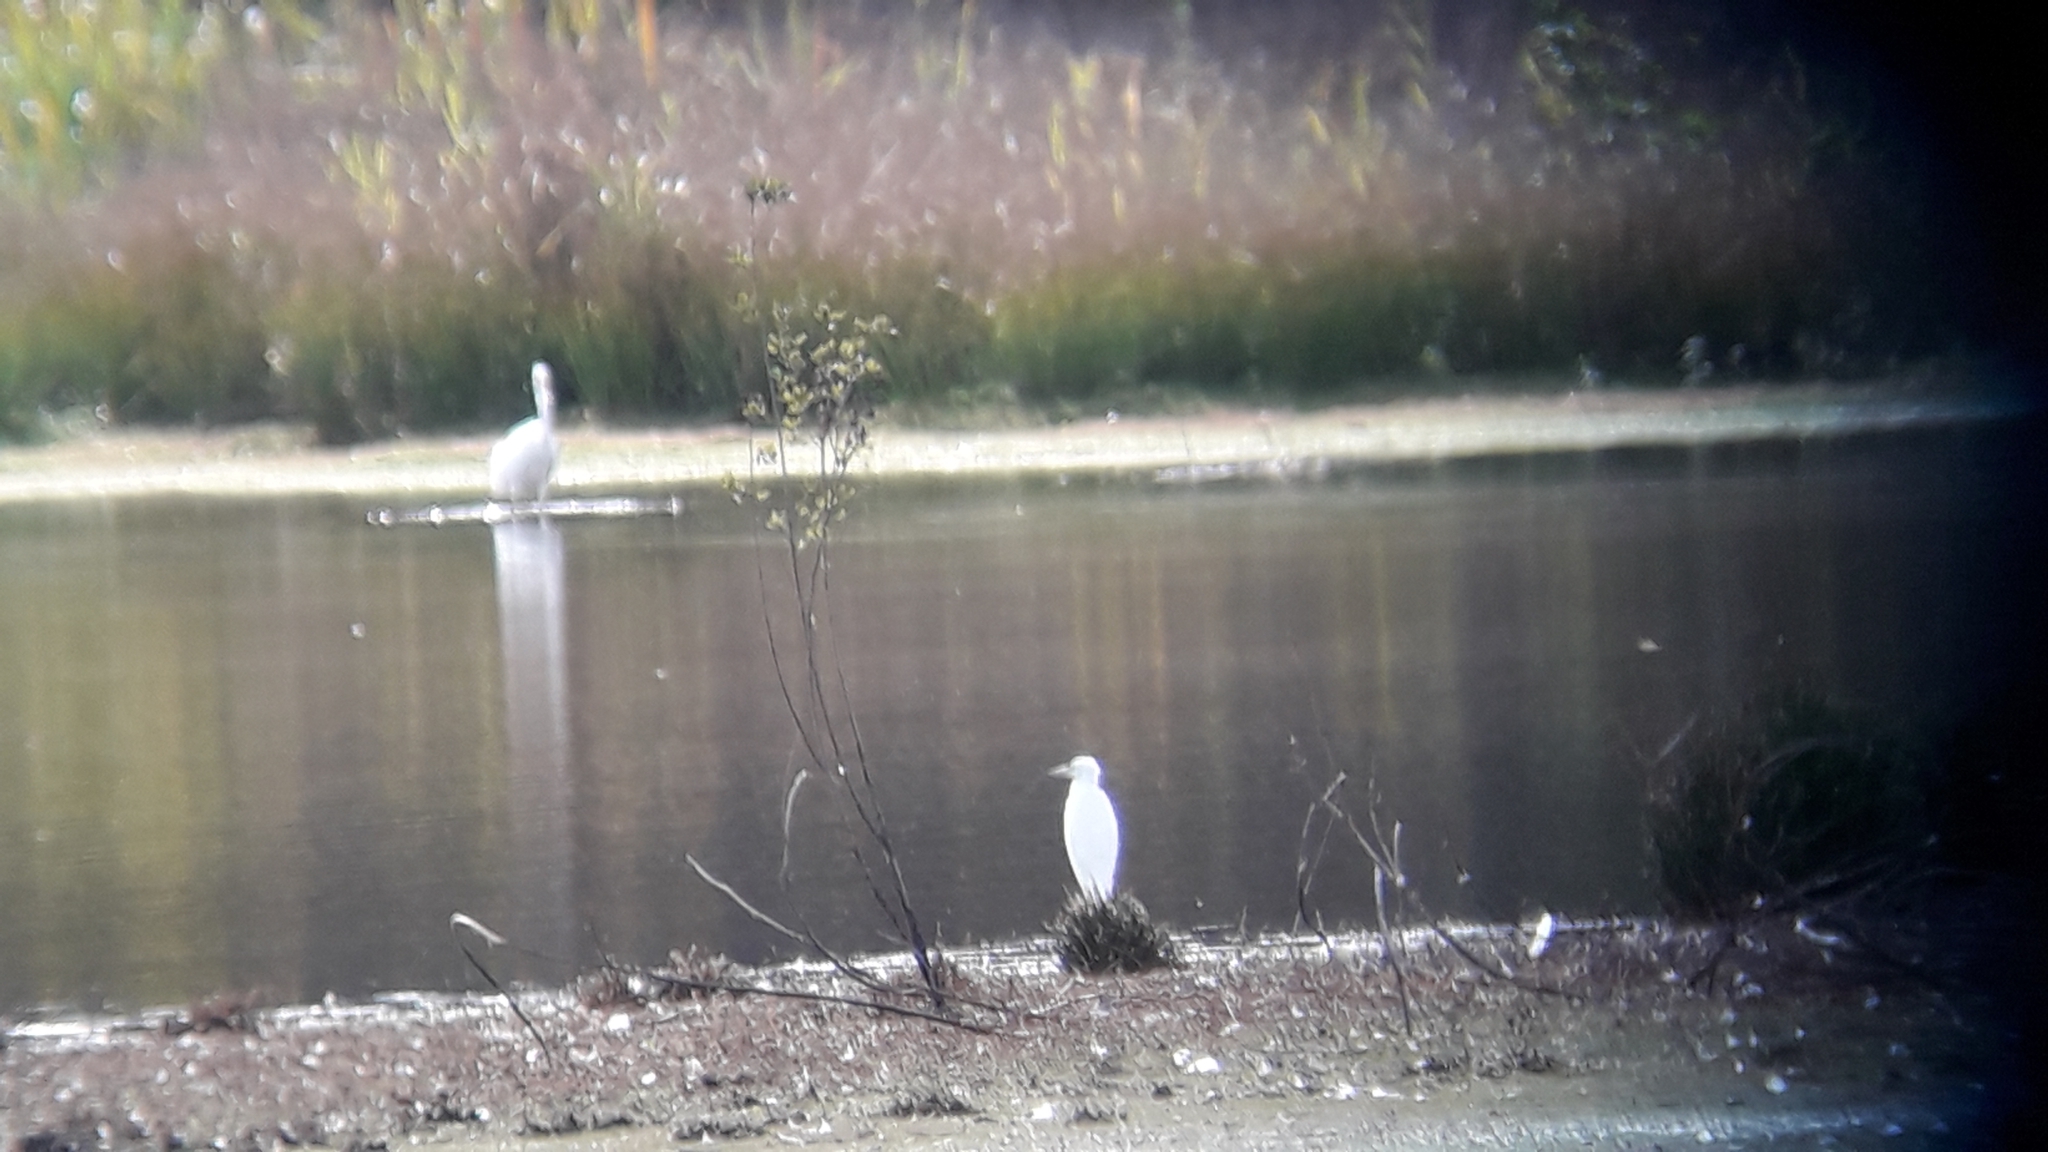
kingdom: Animalia
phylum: Chordata
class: Aves
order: Pelecaniformes
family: Ardeidae
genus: Egretta
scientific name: Egretta garzetta
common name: Little egret
